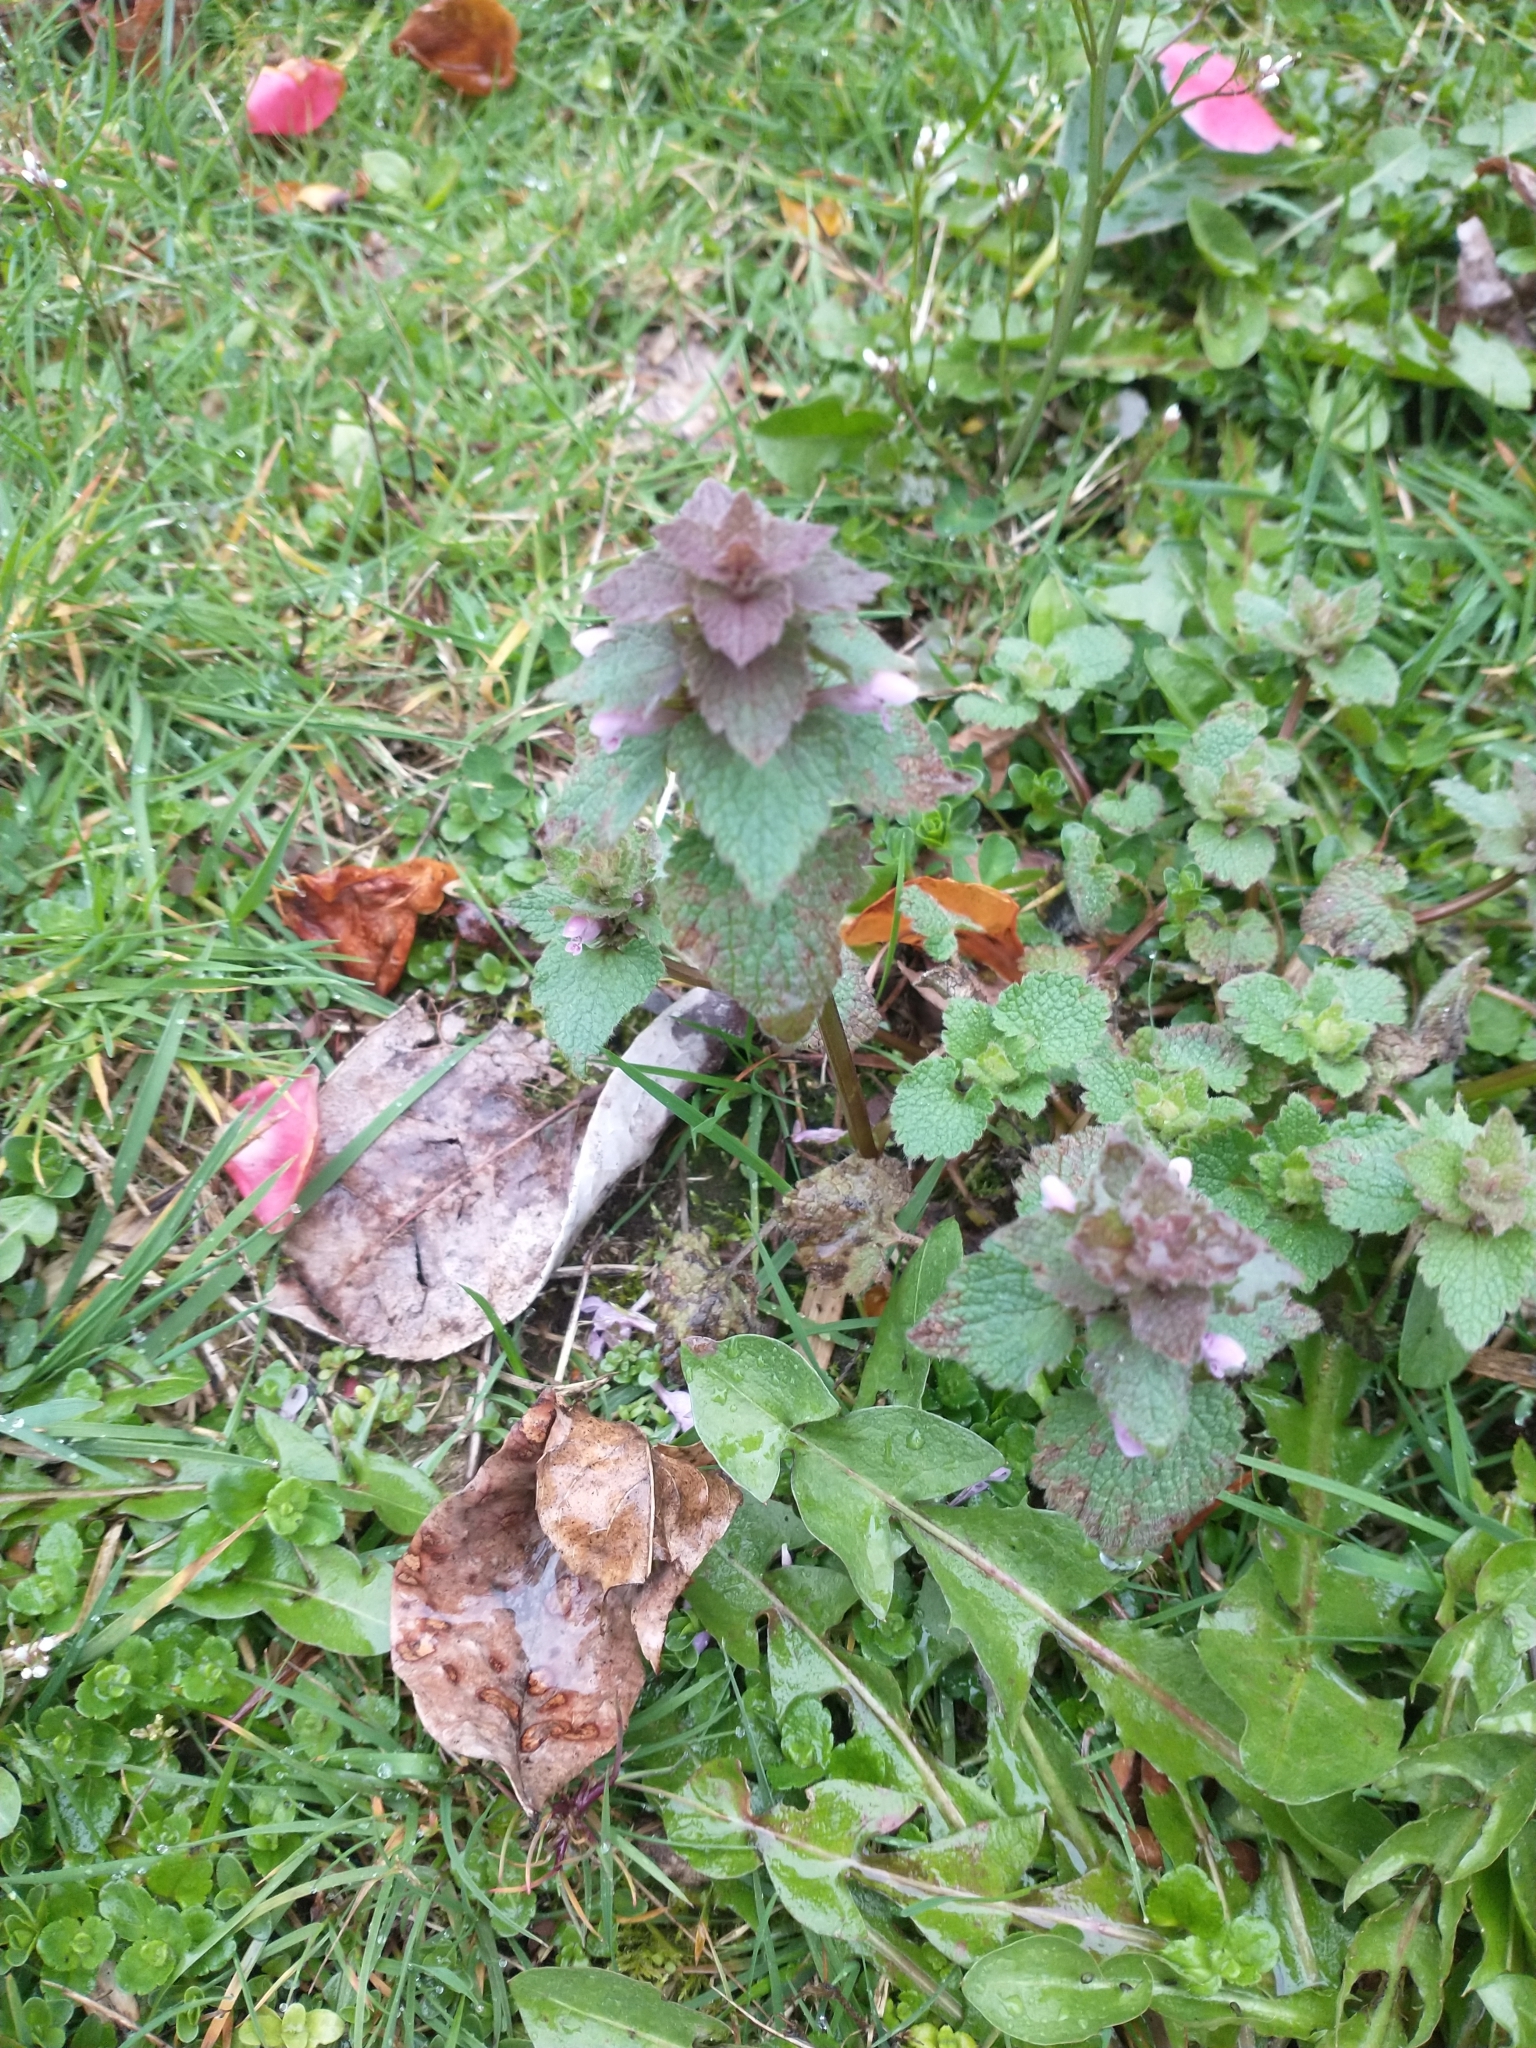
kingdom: Plantae
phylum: Tracheophyta
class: Magnoliopsida
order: Lamiales
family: Lamiaceae
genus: Lamium
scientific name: Lamium purpureum
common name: Red dead-nettle
